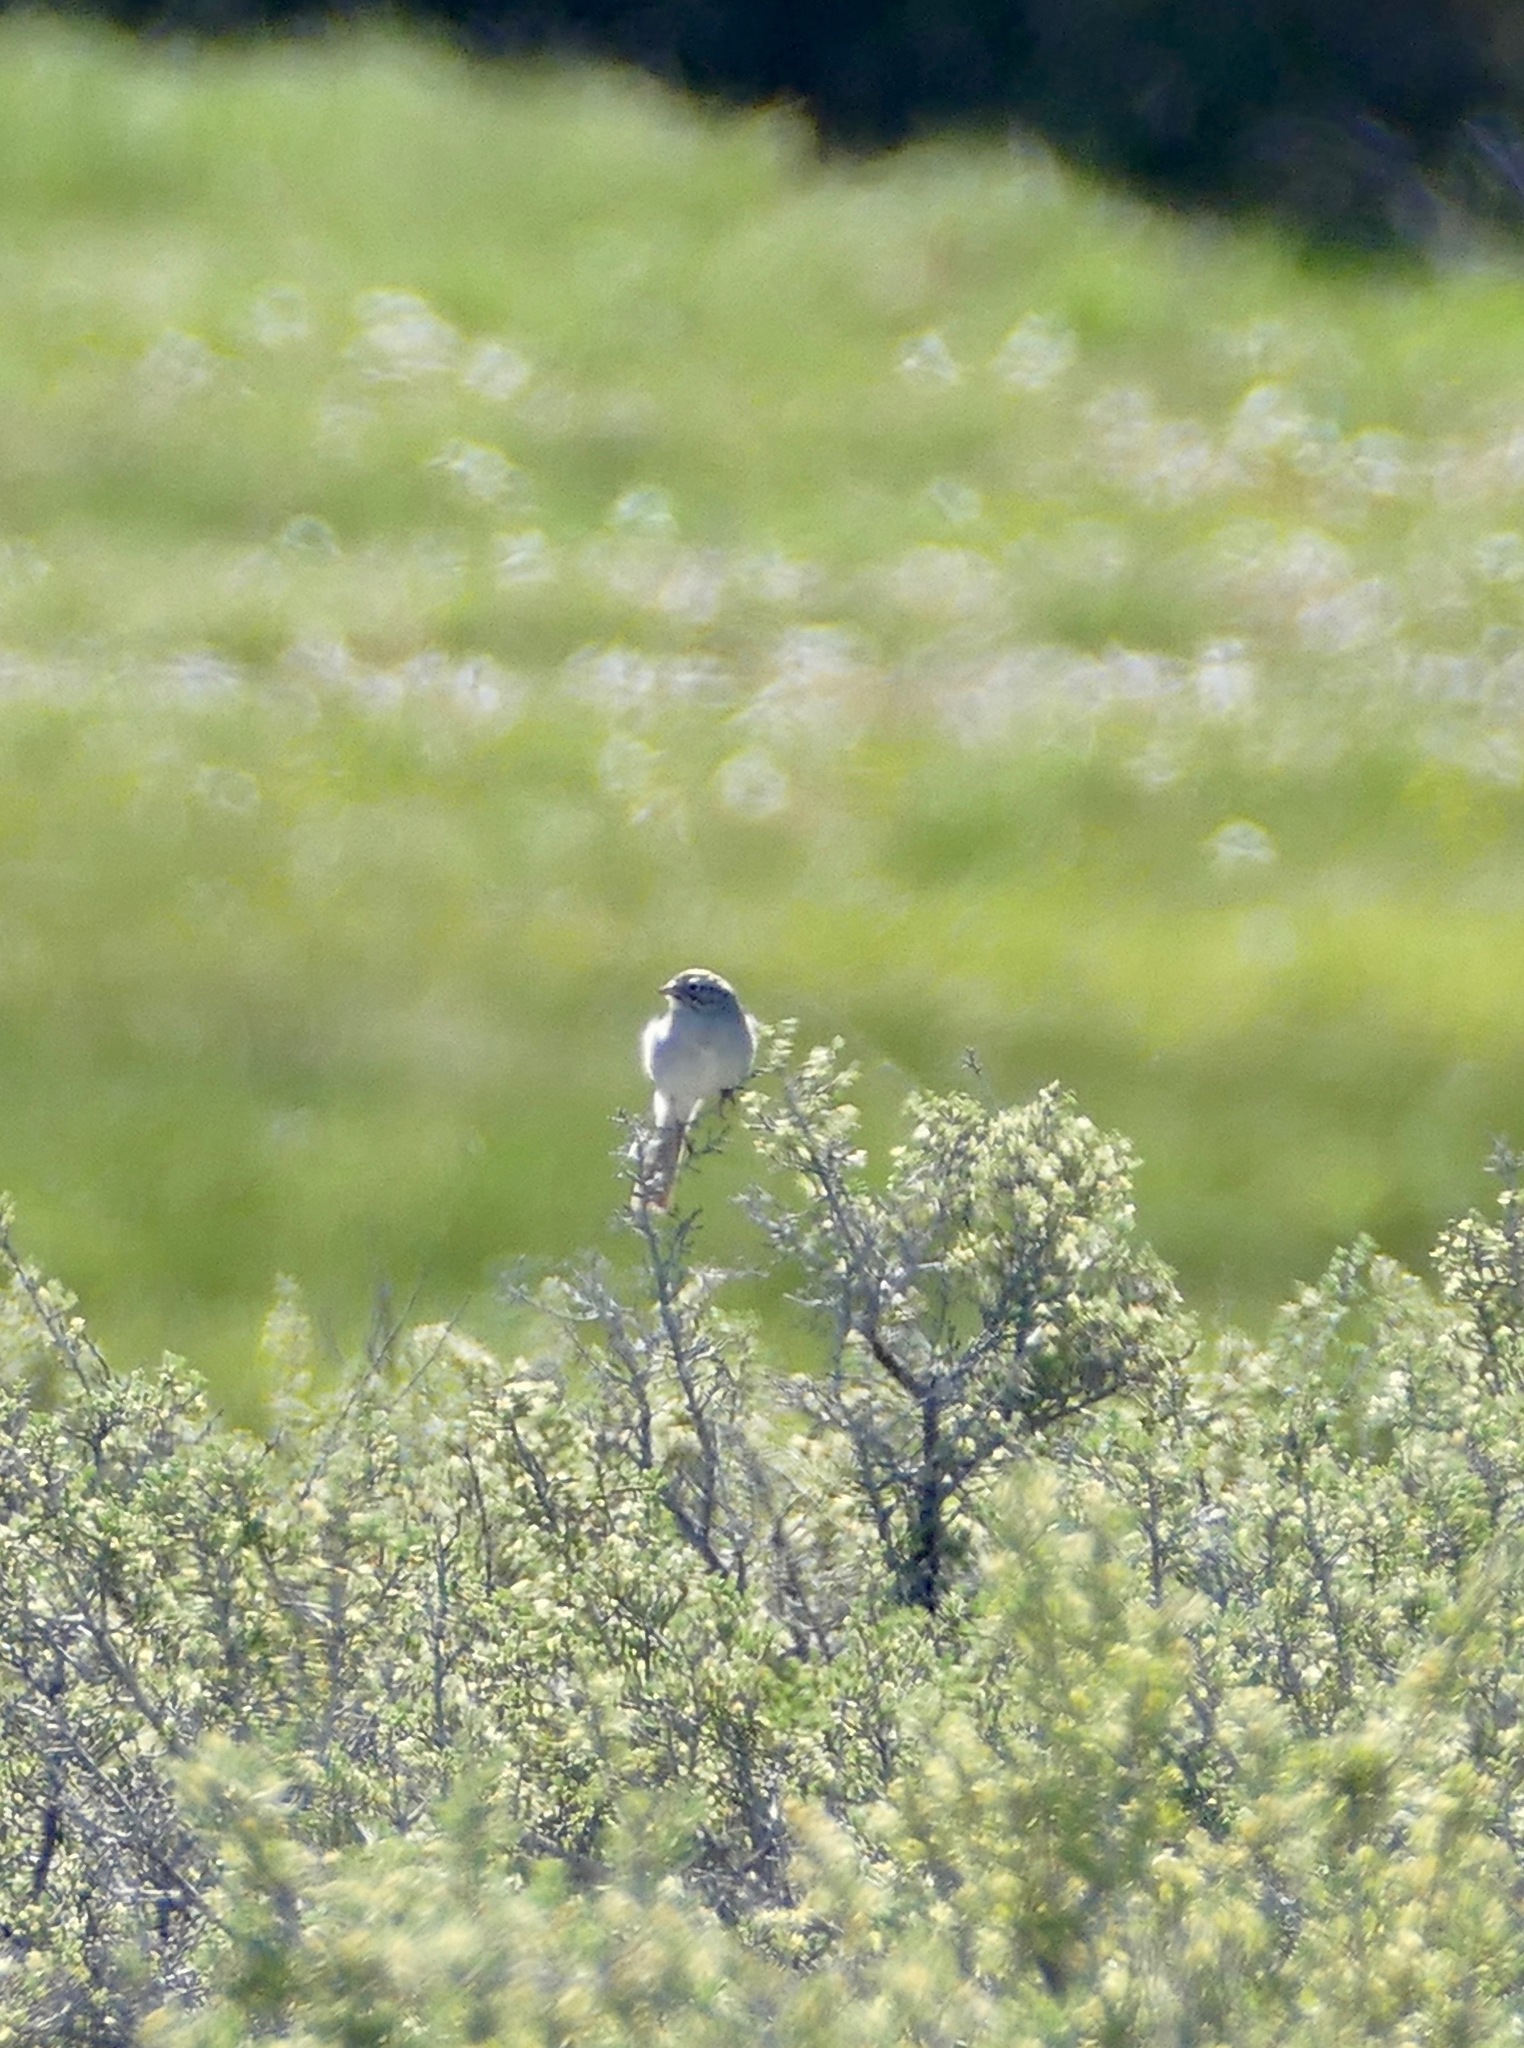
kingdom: Animalia
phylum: Chordata
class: Aves
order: Passeriformes
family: Passerellidae
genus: Spizella
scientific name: Spizella breweri
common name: Brewer's sparrow
